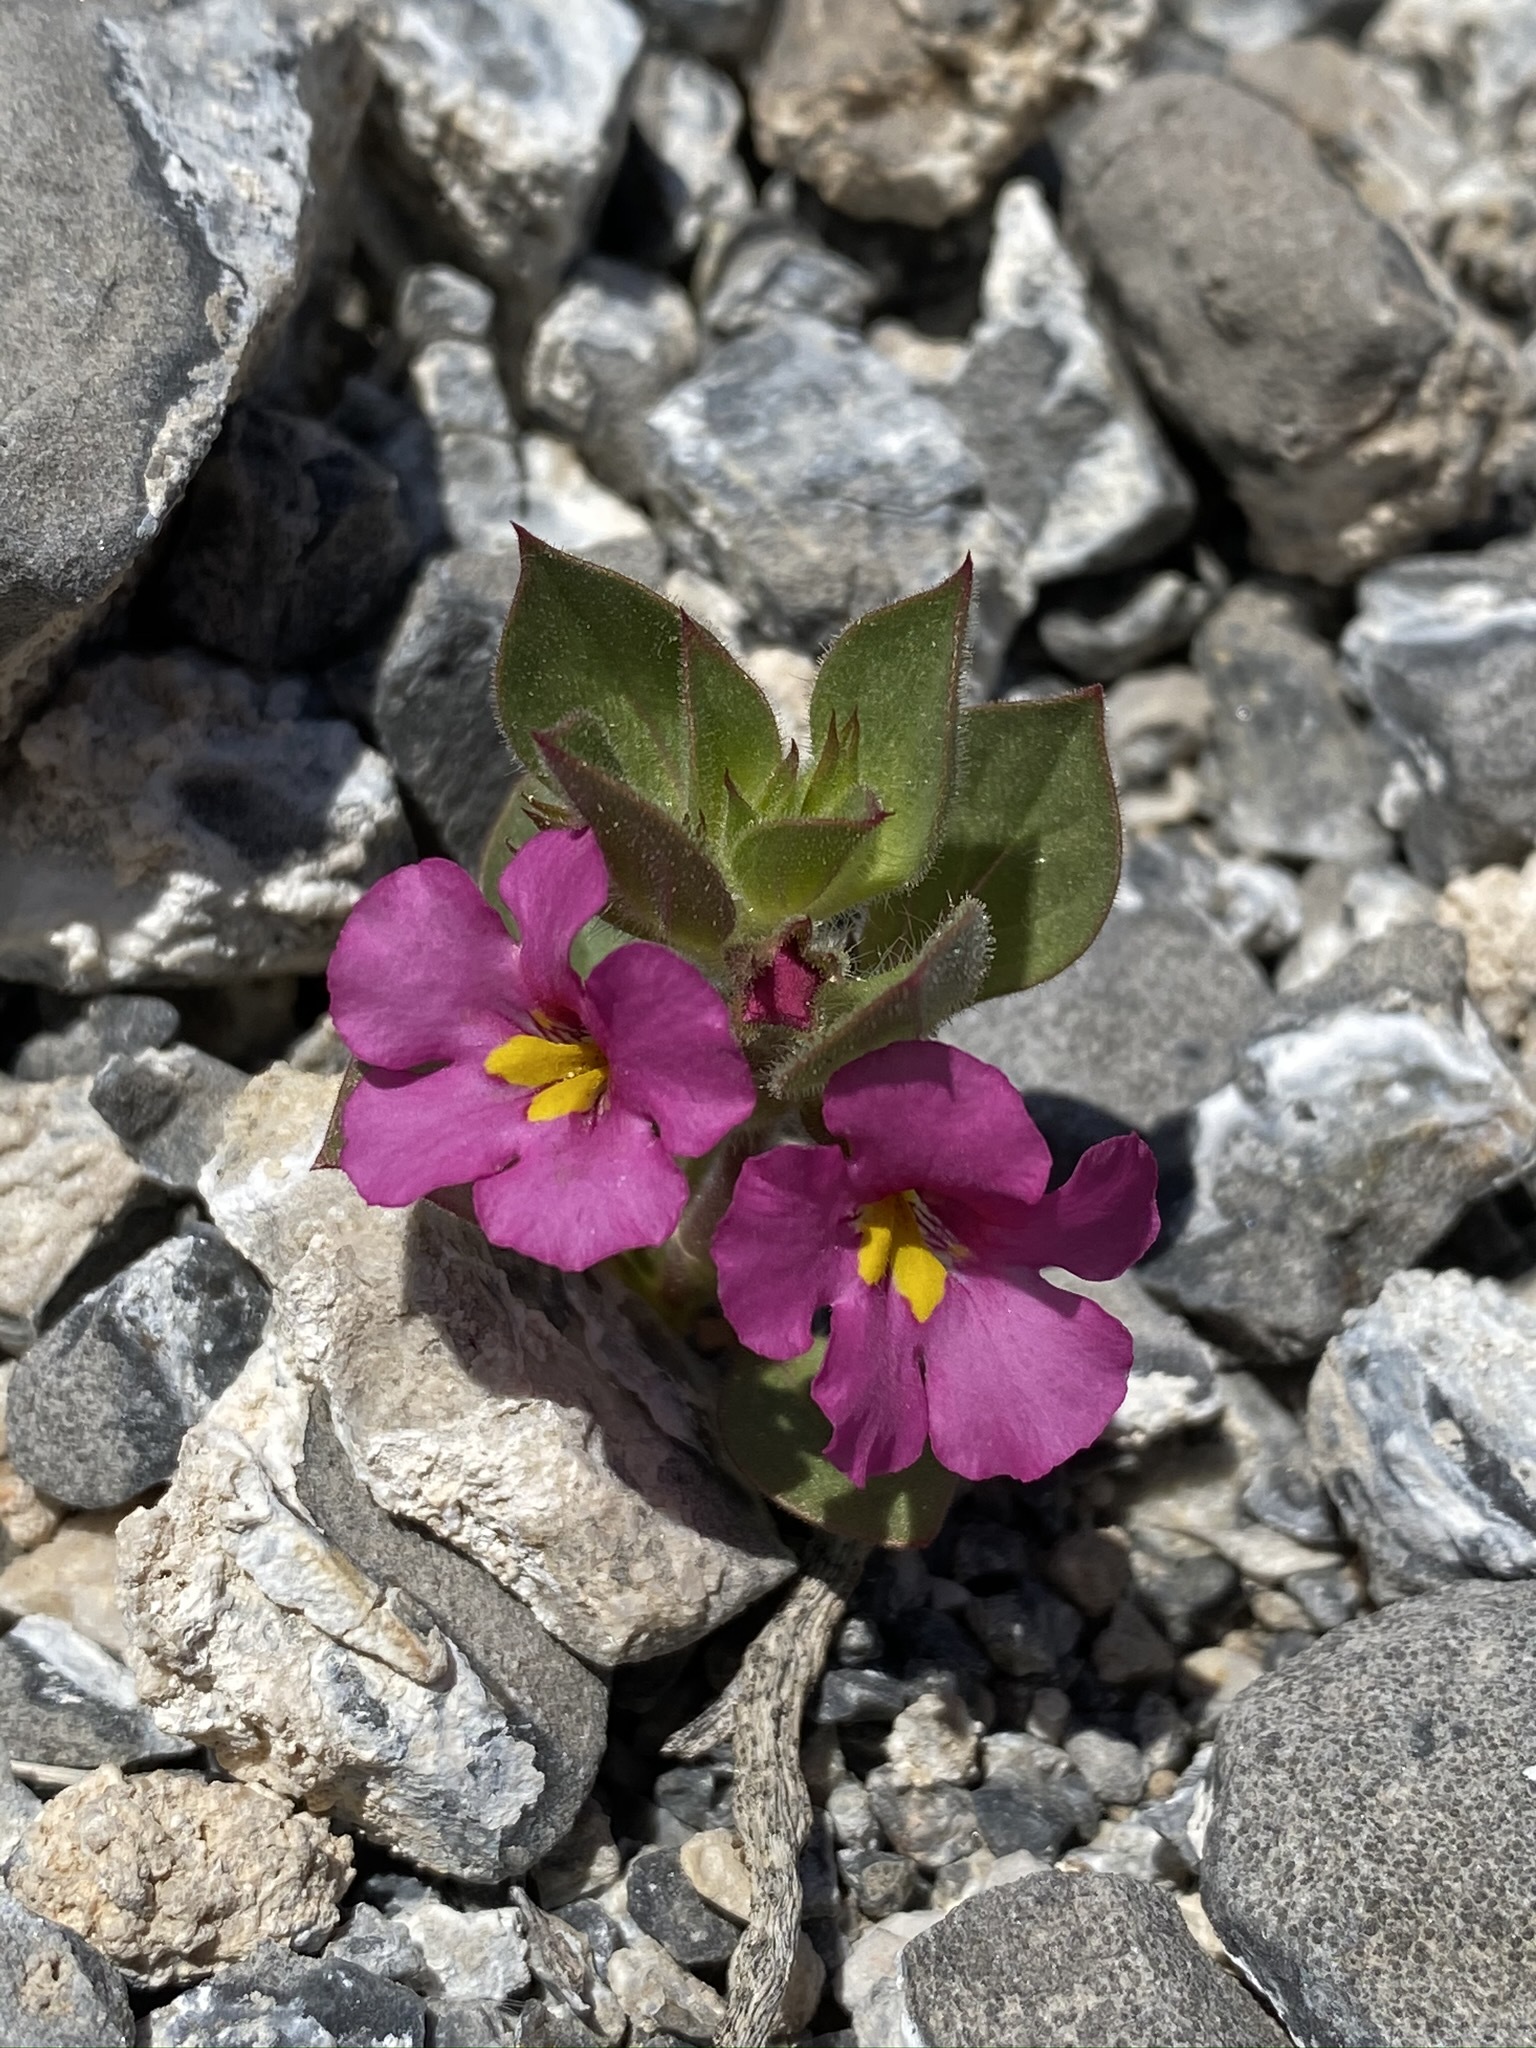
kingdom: Plantae
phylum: Tracheophyta
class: Magnoliopsida
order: Lamiales
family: Phrymaceae
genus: Diplacus
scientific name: Diplacus bigelovii
